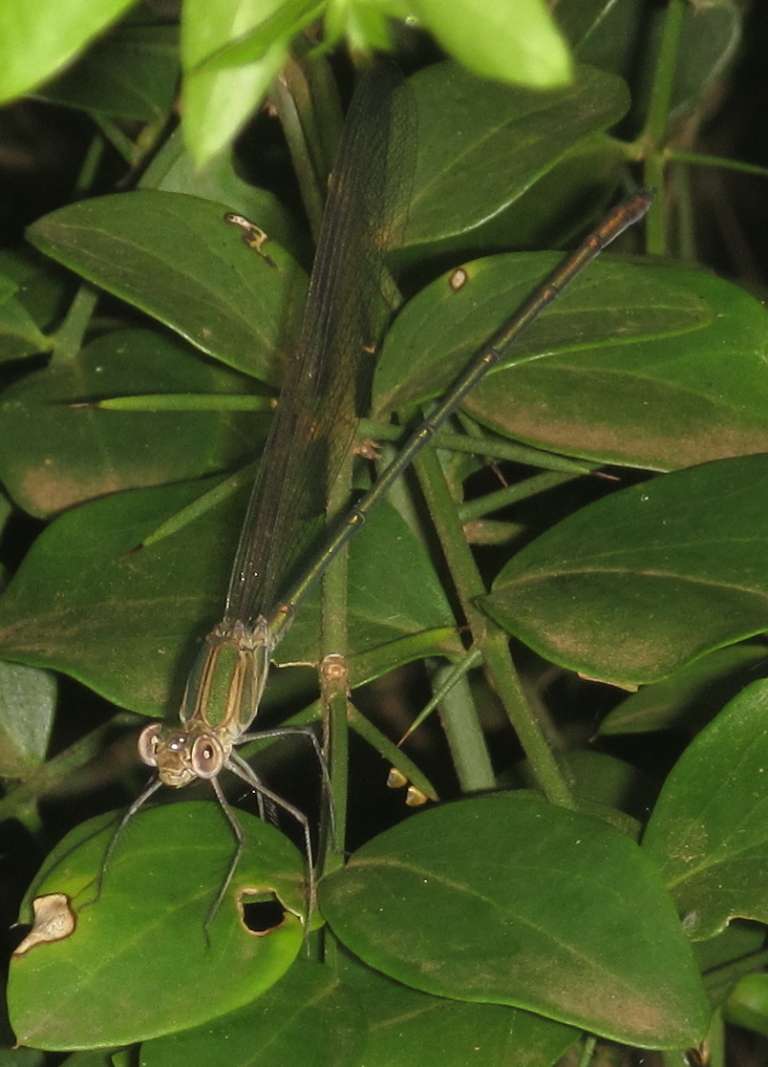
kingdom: Animalia
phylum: Arthropoda
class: Insecta
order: Odonata
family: Calopterygidae
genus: Phaon
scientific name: Phaon iridipennis
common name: Glistening demoiselle
